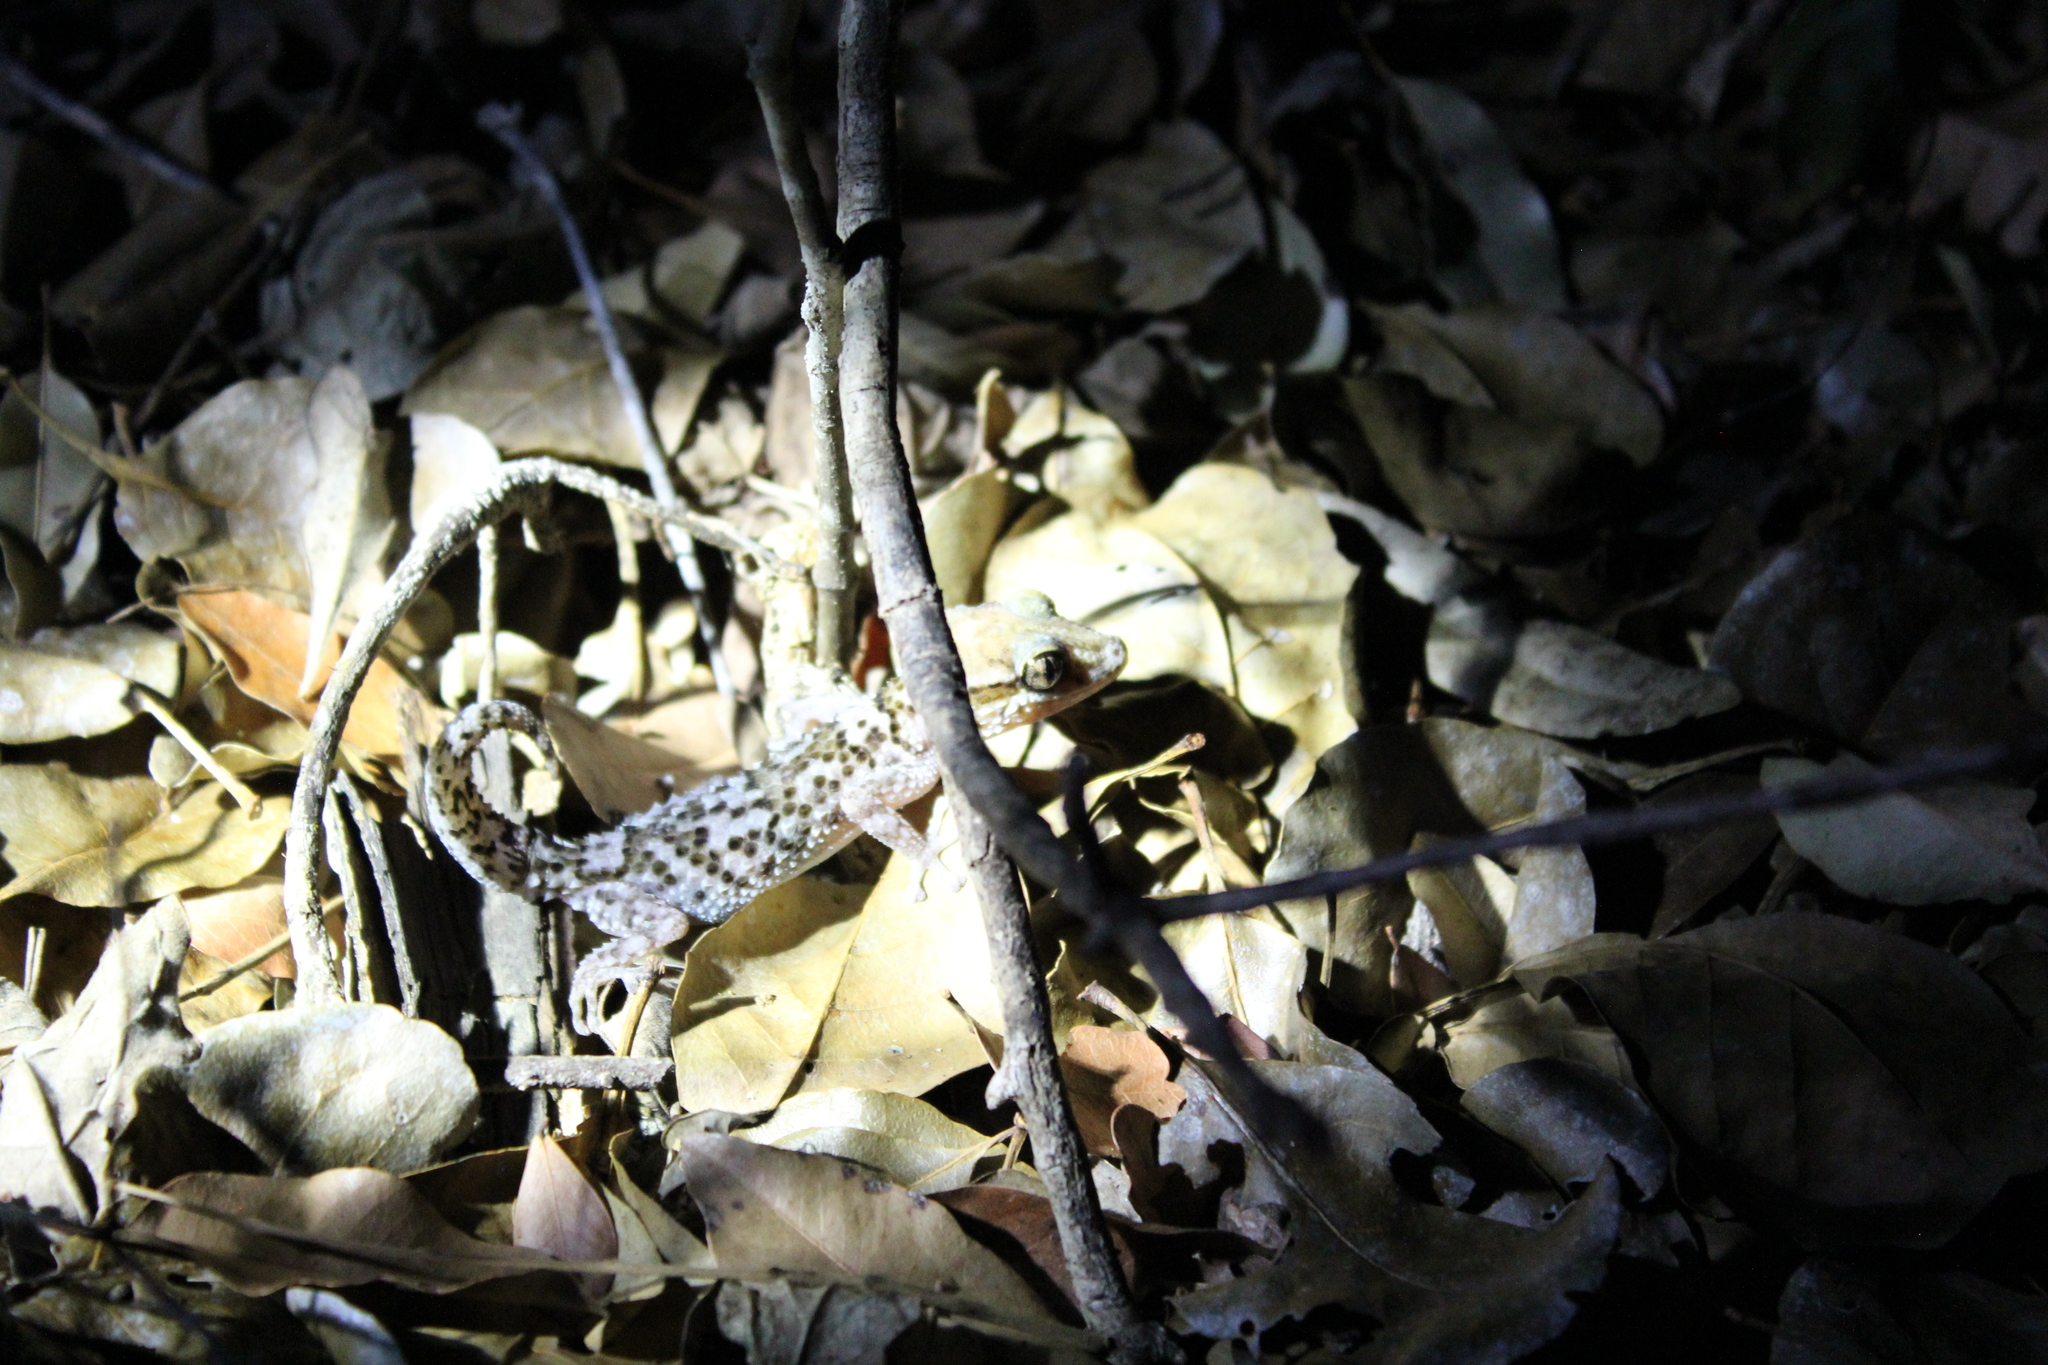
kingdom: Animalia
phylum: Chordata
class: Squamata
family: Gekkonidae
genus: Paroedura
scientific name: Paroedura rennerae
